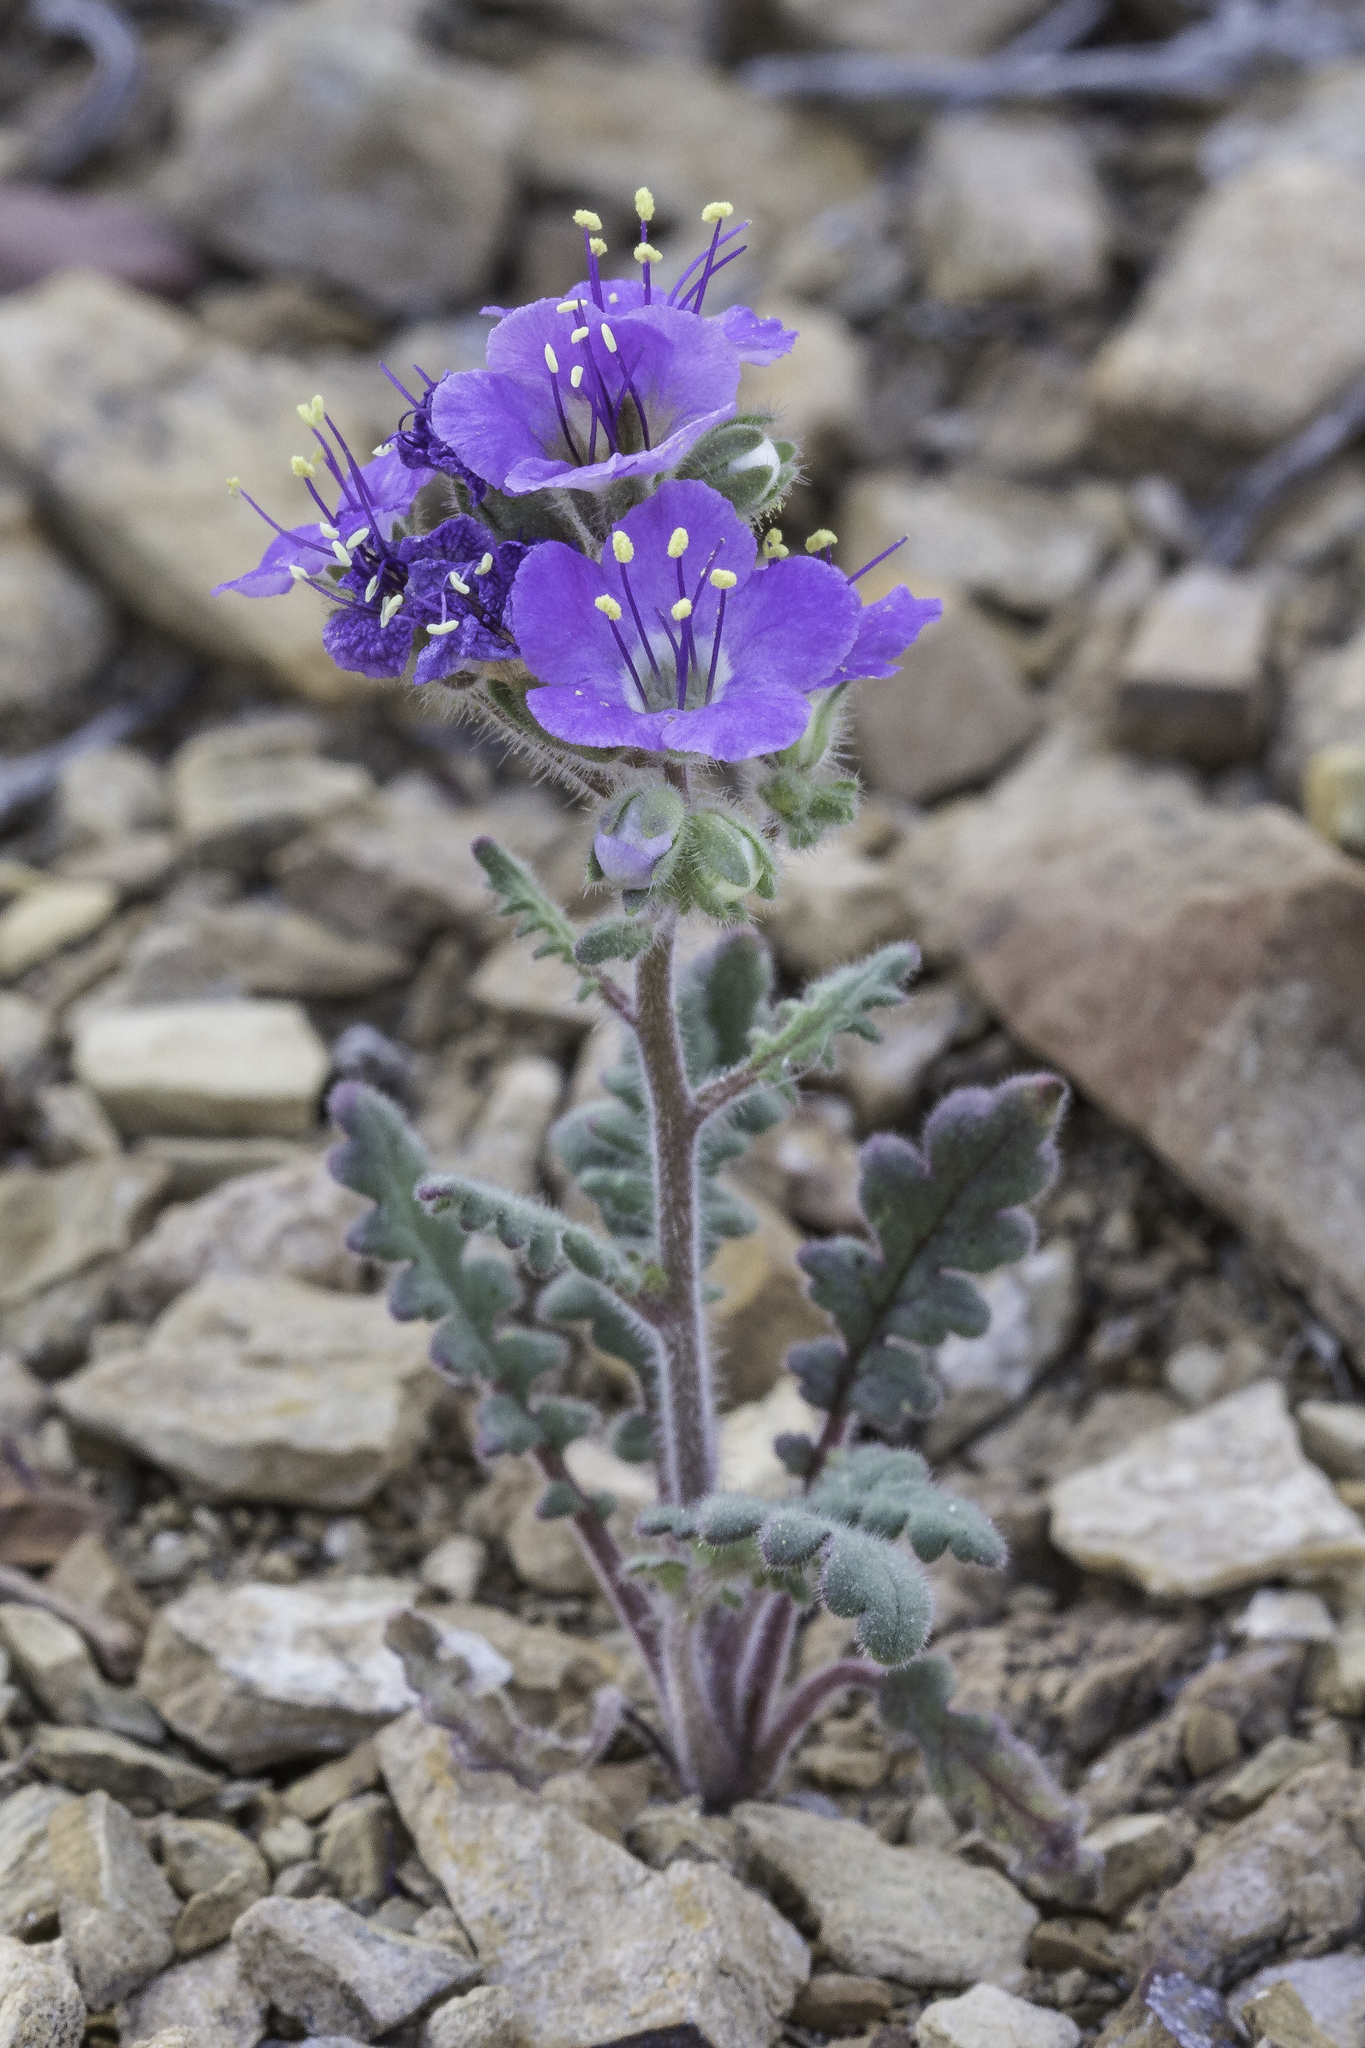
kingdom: Plantae
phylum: Tracheophyta
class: Magnoliopsida
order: Boraginales
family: Hydrophyllaceae
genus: Phacelia
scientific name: Phacelia crenulata
